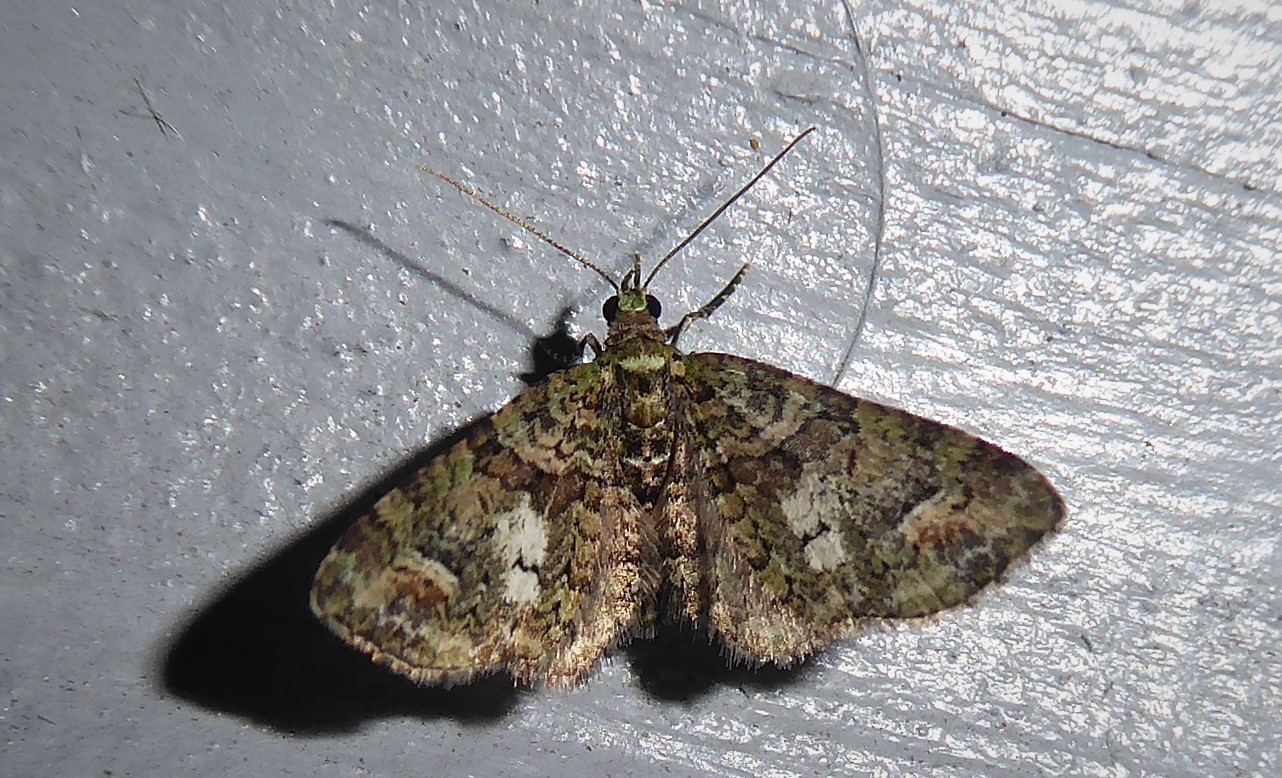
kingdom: Animalia
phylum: Arthropoda
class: Insecta
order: Lepidoptera
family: Geometridae
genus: Idaea
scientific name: Idaea mutanda
